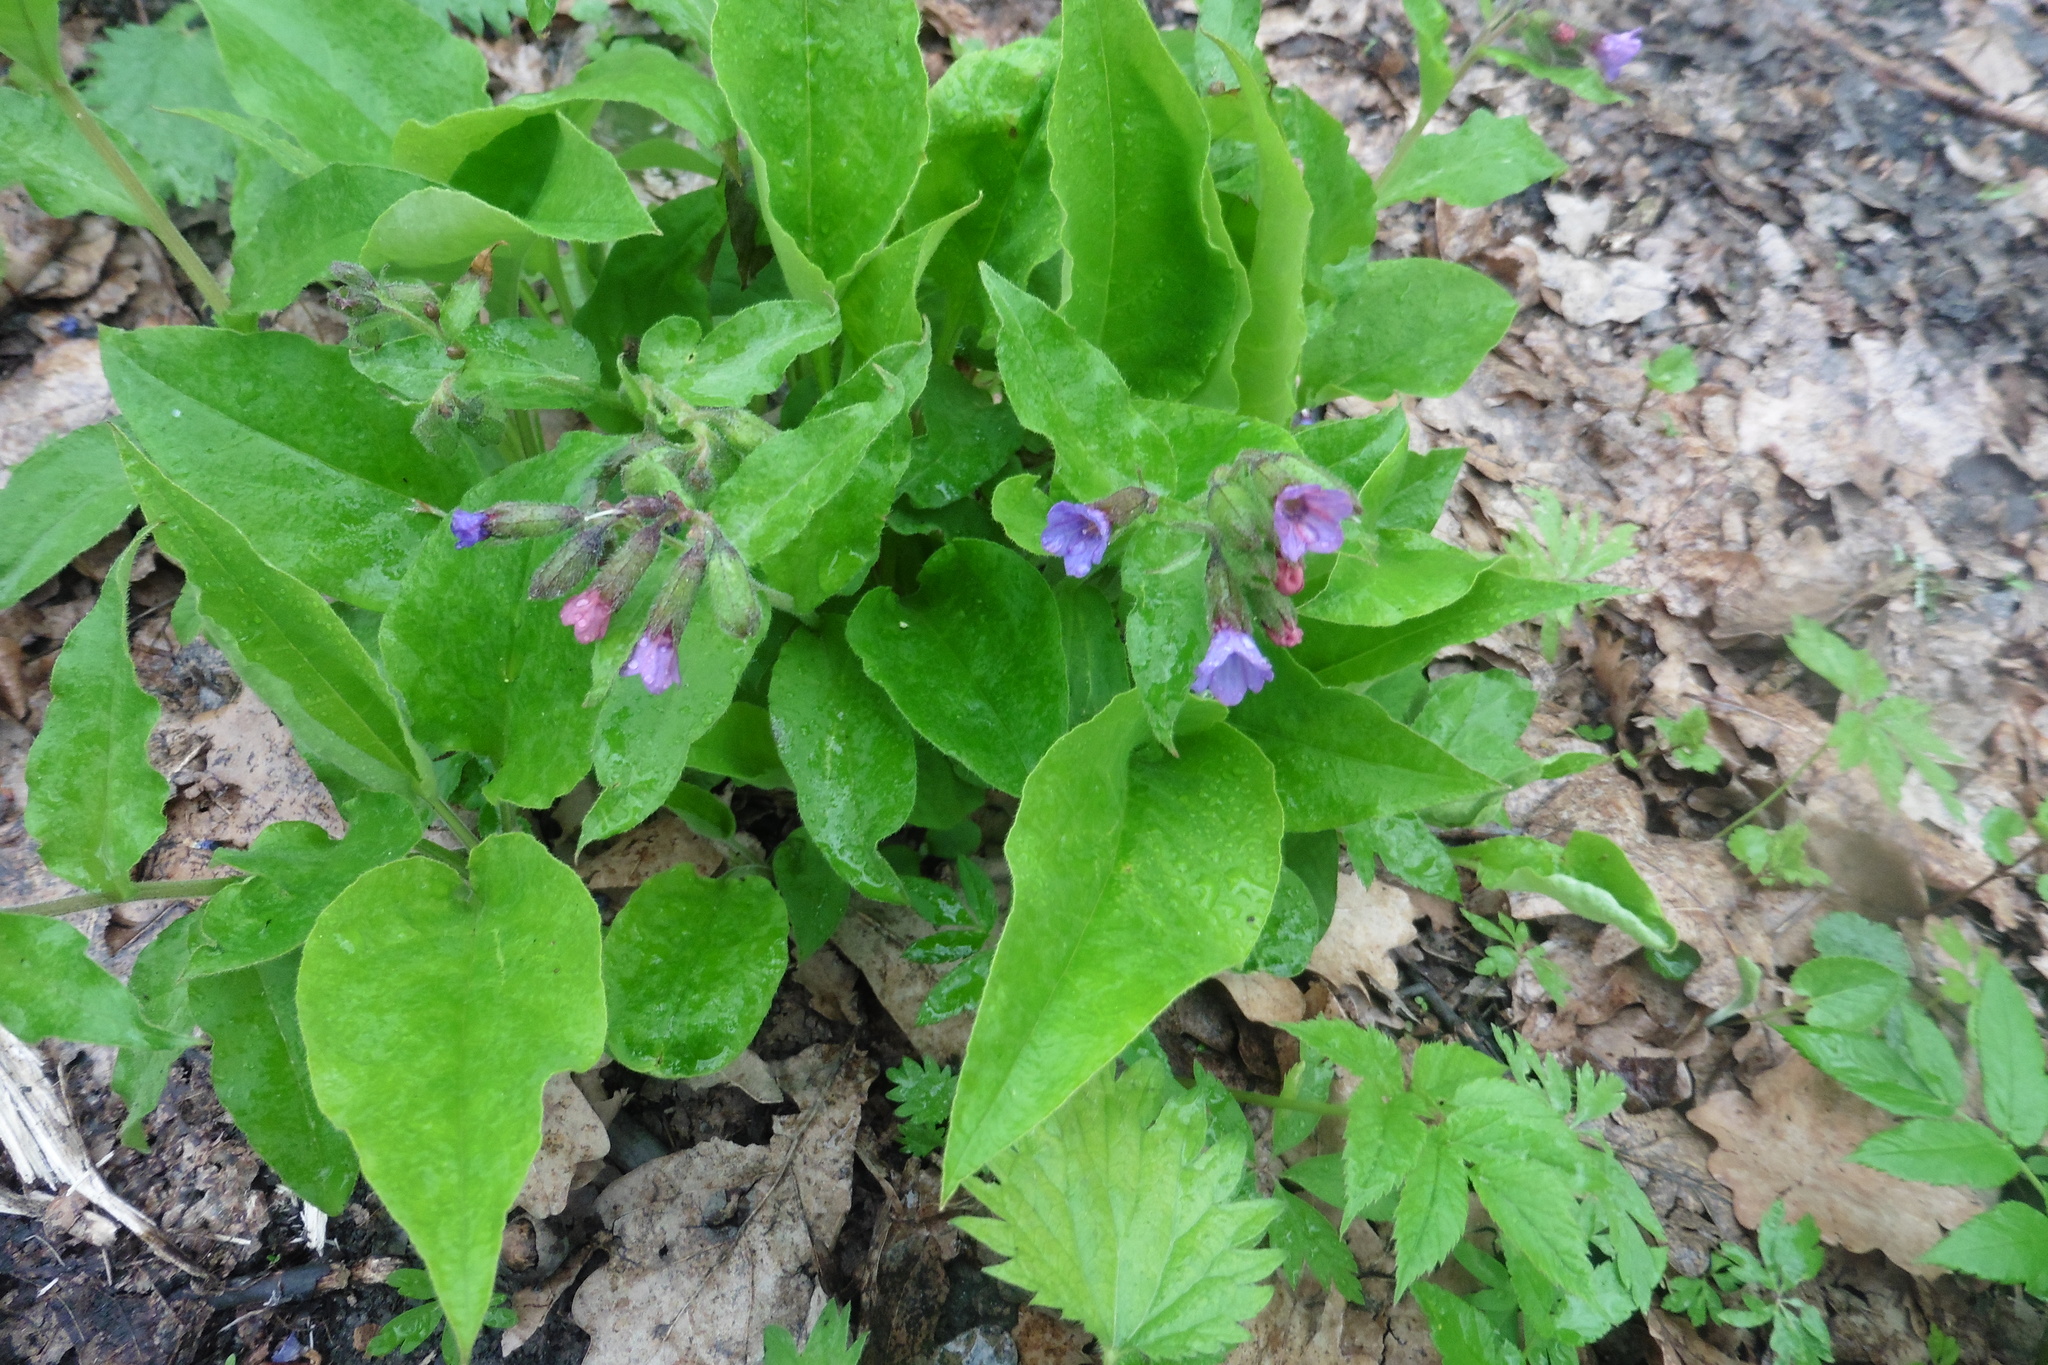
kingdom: Plantae
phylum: Tracheophyta
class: Magnoliopsida
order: Boraginales
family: Boraginaceae
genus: Pulmonaria
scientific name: Pulmonaria obscura
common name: Suffolk lungwort
